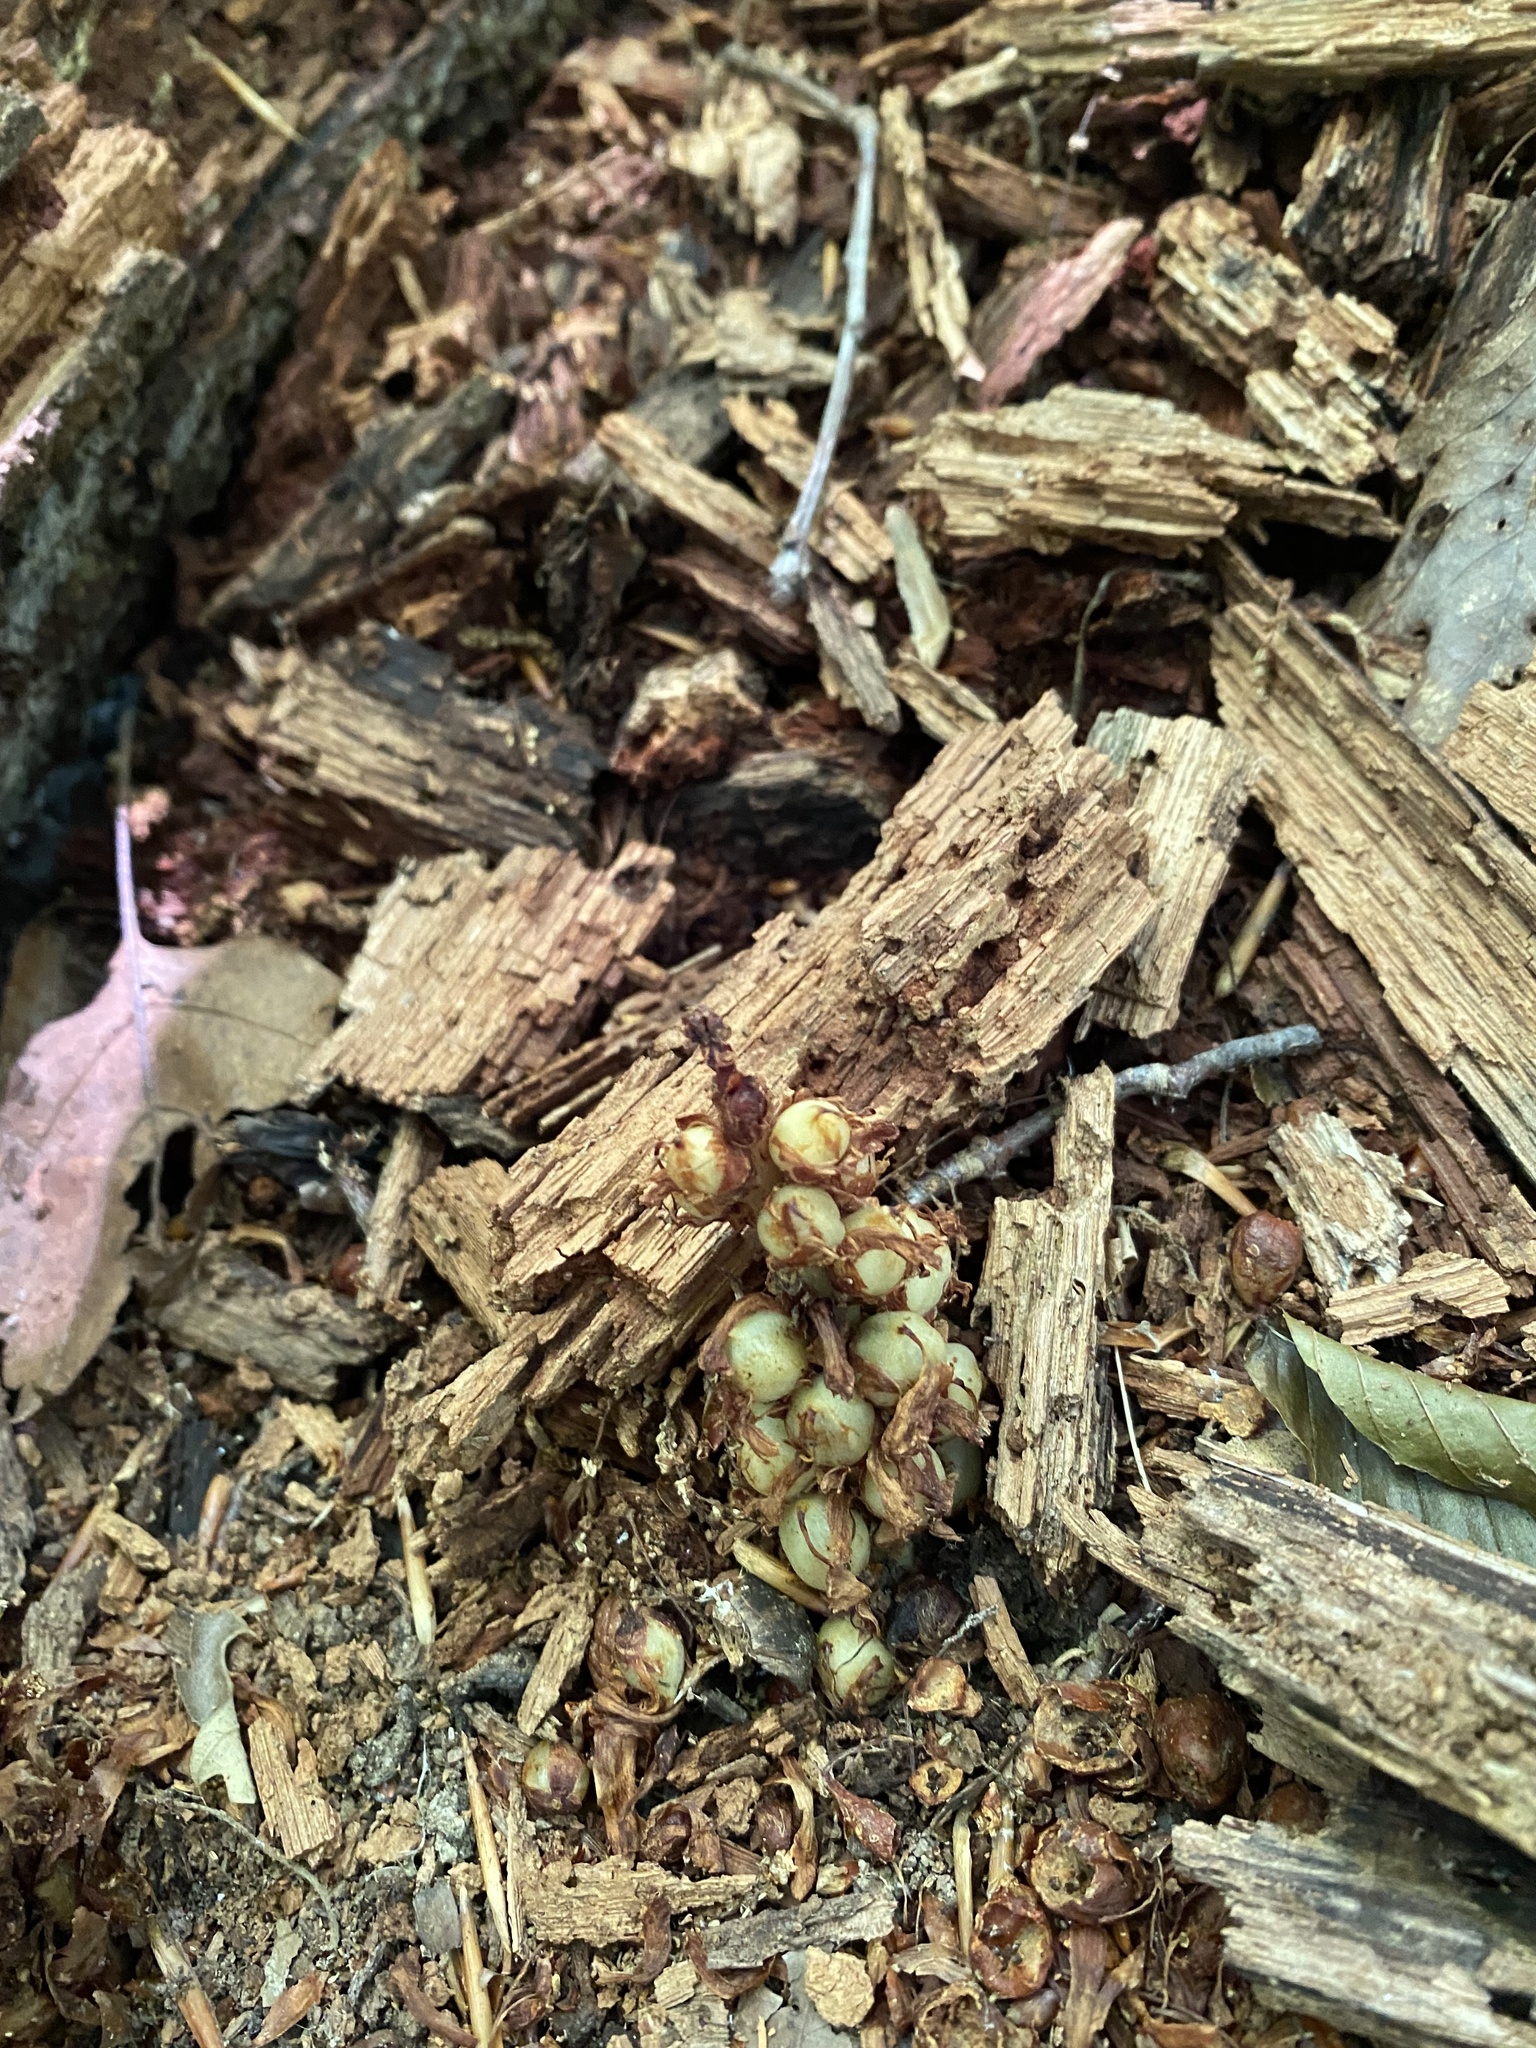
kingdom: Plantae
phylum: Tracheophyta
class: Magnoliopsida
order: Lamiales
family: Orobanchaceae
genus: Conopholis
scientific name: Conopholis americana
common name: American cancer-root
